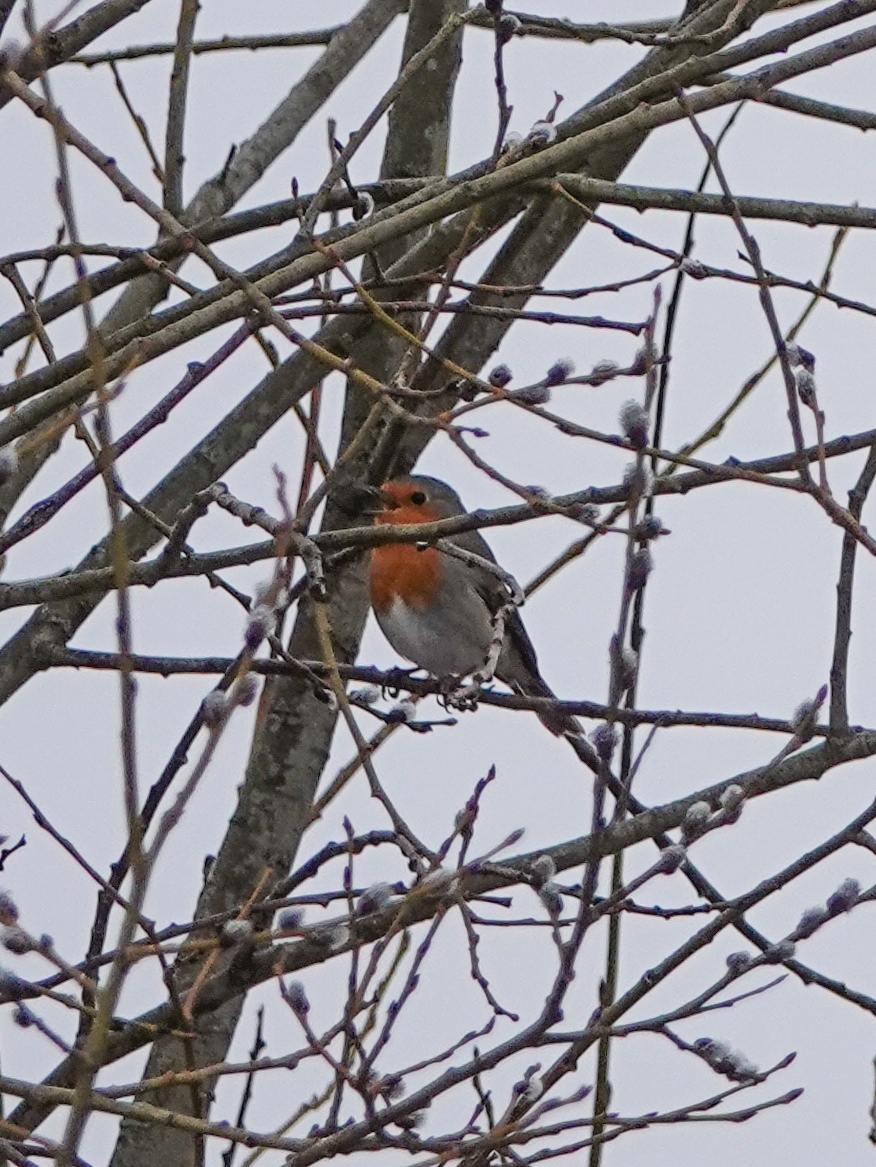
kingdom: Animalia
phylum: Chordata
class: Aves
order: Passeriformes
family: Muscicapidae
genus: Erithacus
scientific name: Erithacus rubecula
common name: European robin
